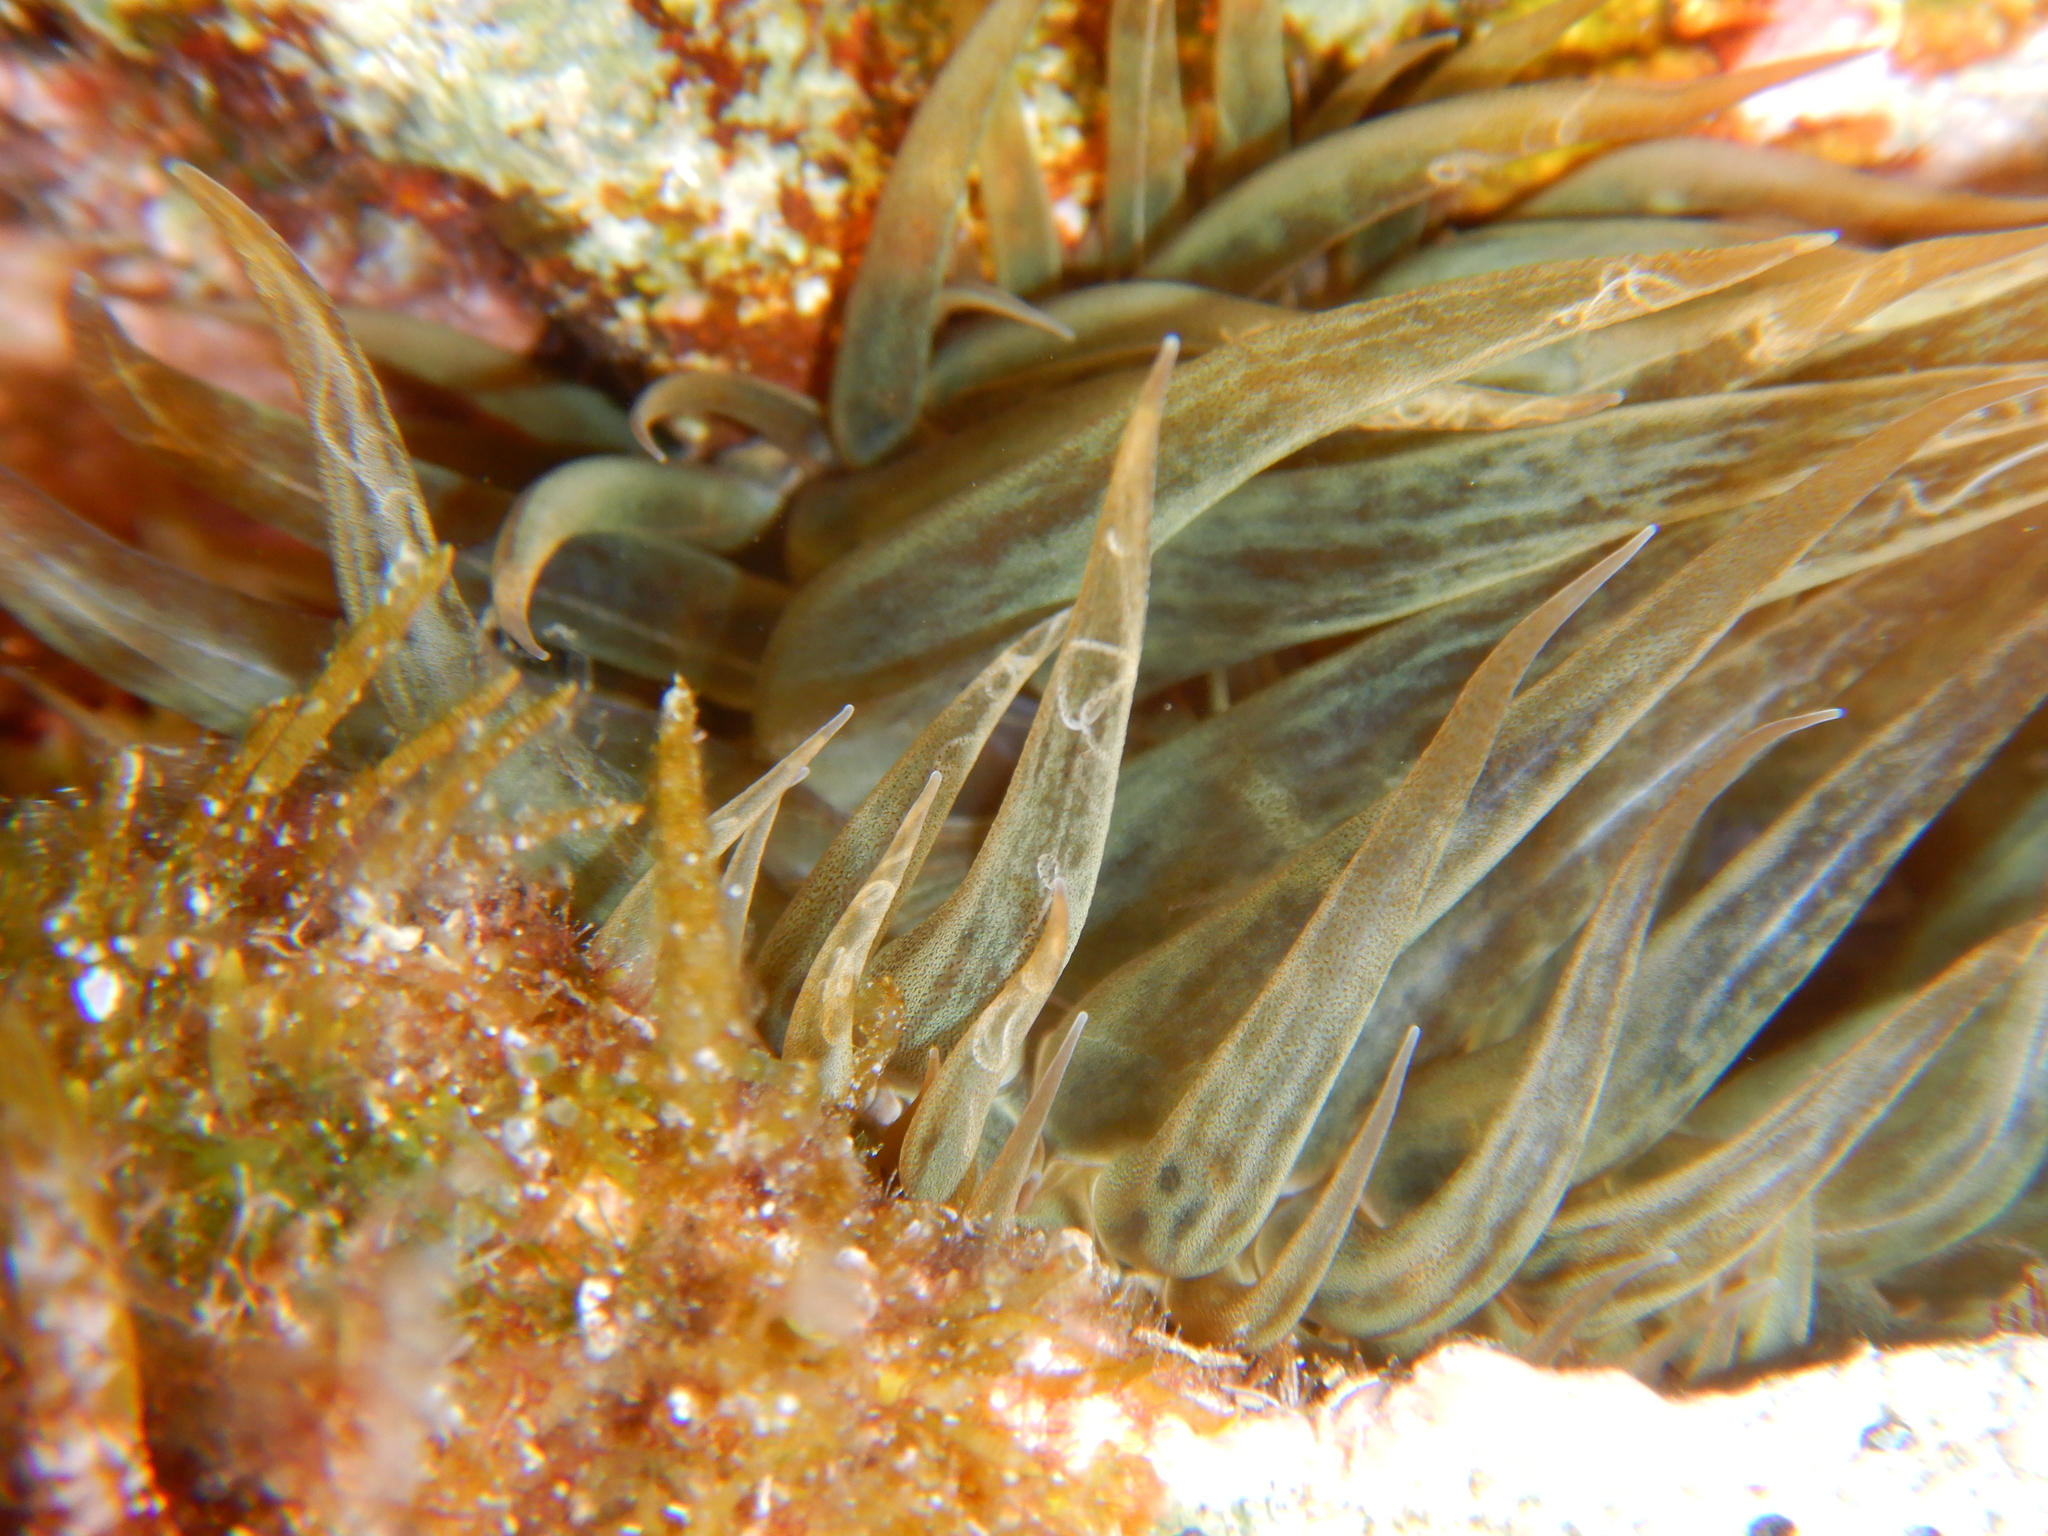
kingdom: Animalia
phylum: Cnidaria
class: Anthozoa
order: Actiniaria
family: Aiptasiidae
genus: Aiptasia
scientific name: Aiptasia mutabilis
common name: Trumpet anemone
